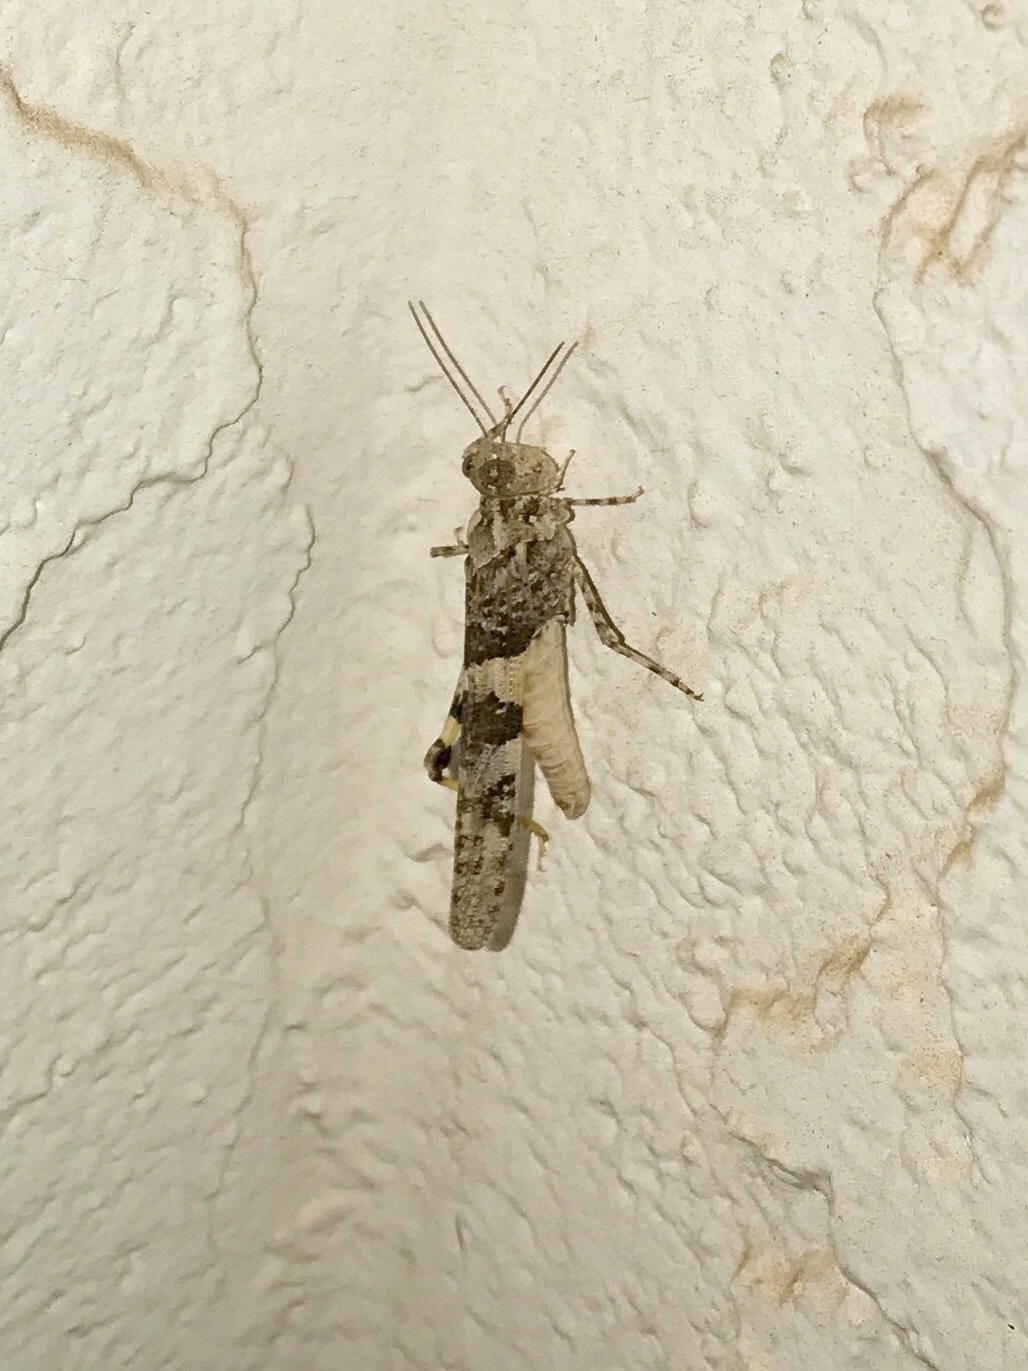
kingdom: Animalia
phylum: Arthropoda
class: Insecta
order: Orthoptera
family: Acrididae
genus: Trimerotropis
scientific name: Trimerotropis pallidipennis
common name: Pallid-winged grasshopper
